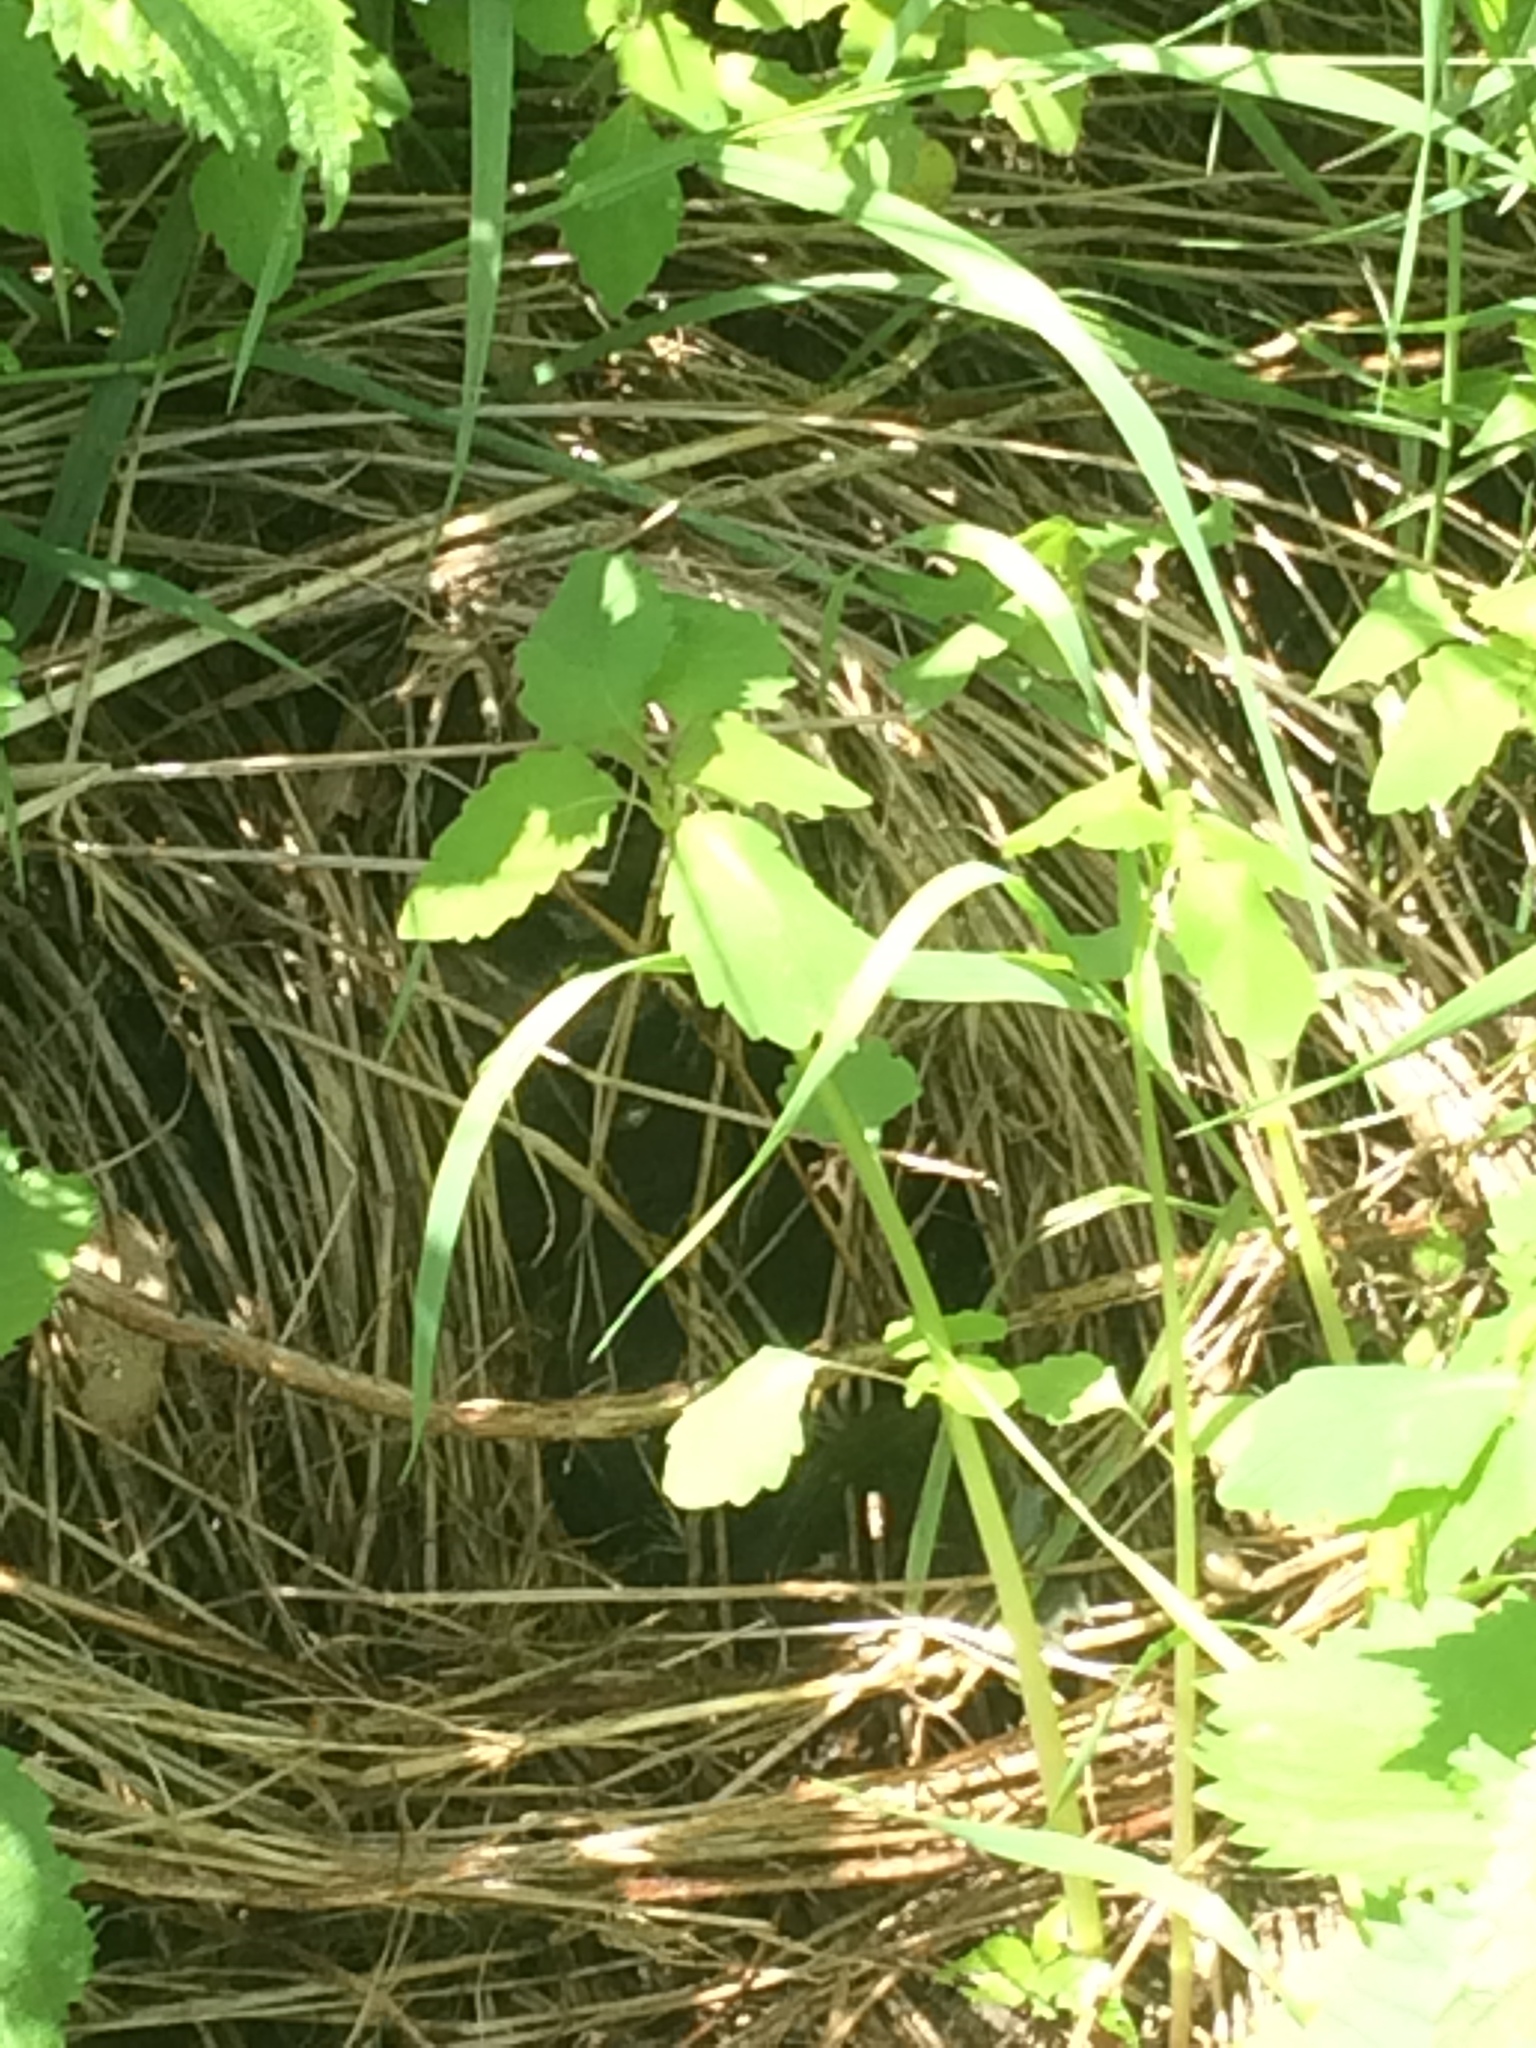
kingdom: Plantae
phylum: Tracheophyta
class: Magnoliopsida
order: Ericales
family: Balsaminaceae
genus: Impatiens
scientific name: Impatiens capensis
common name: Orange balsam
